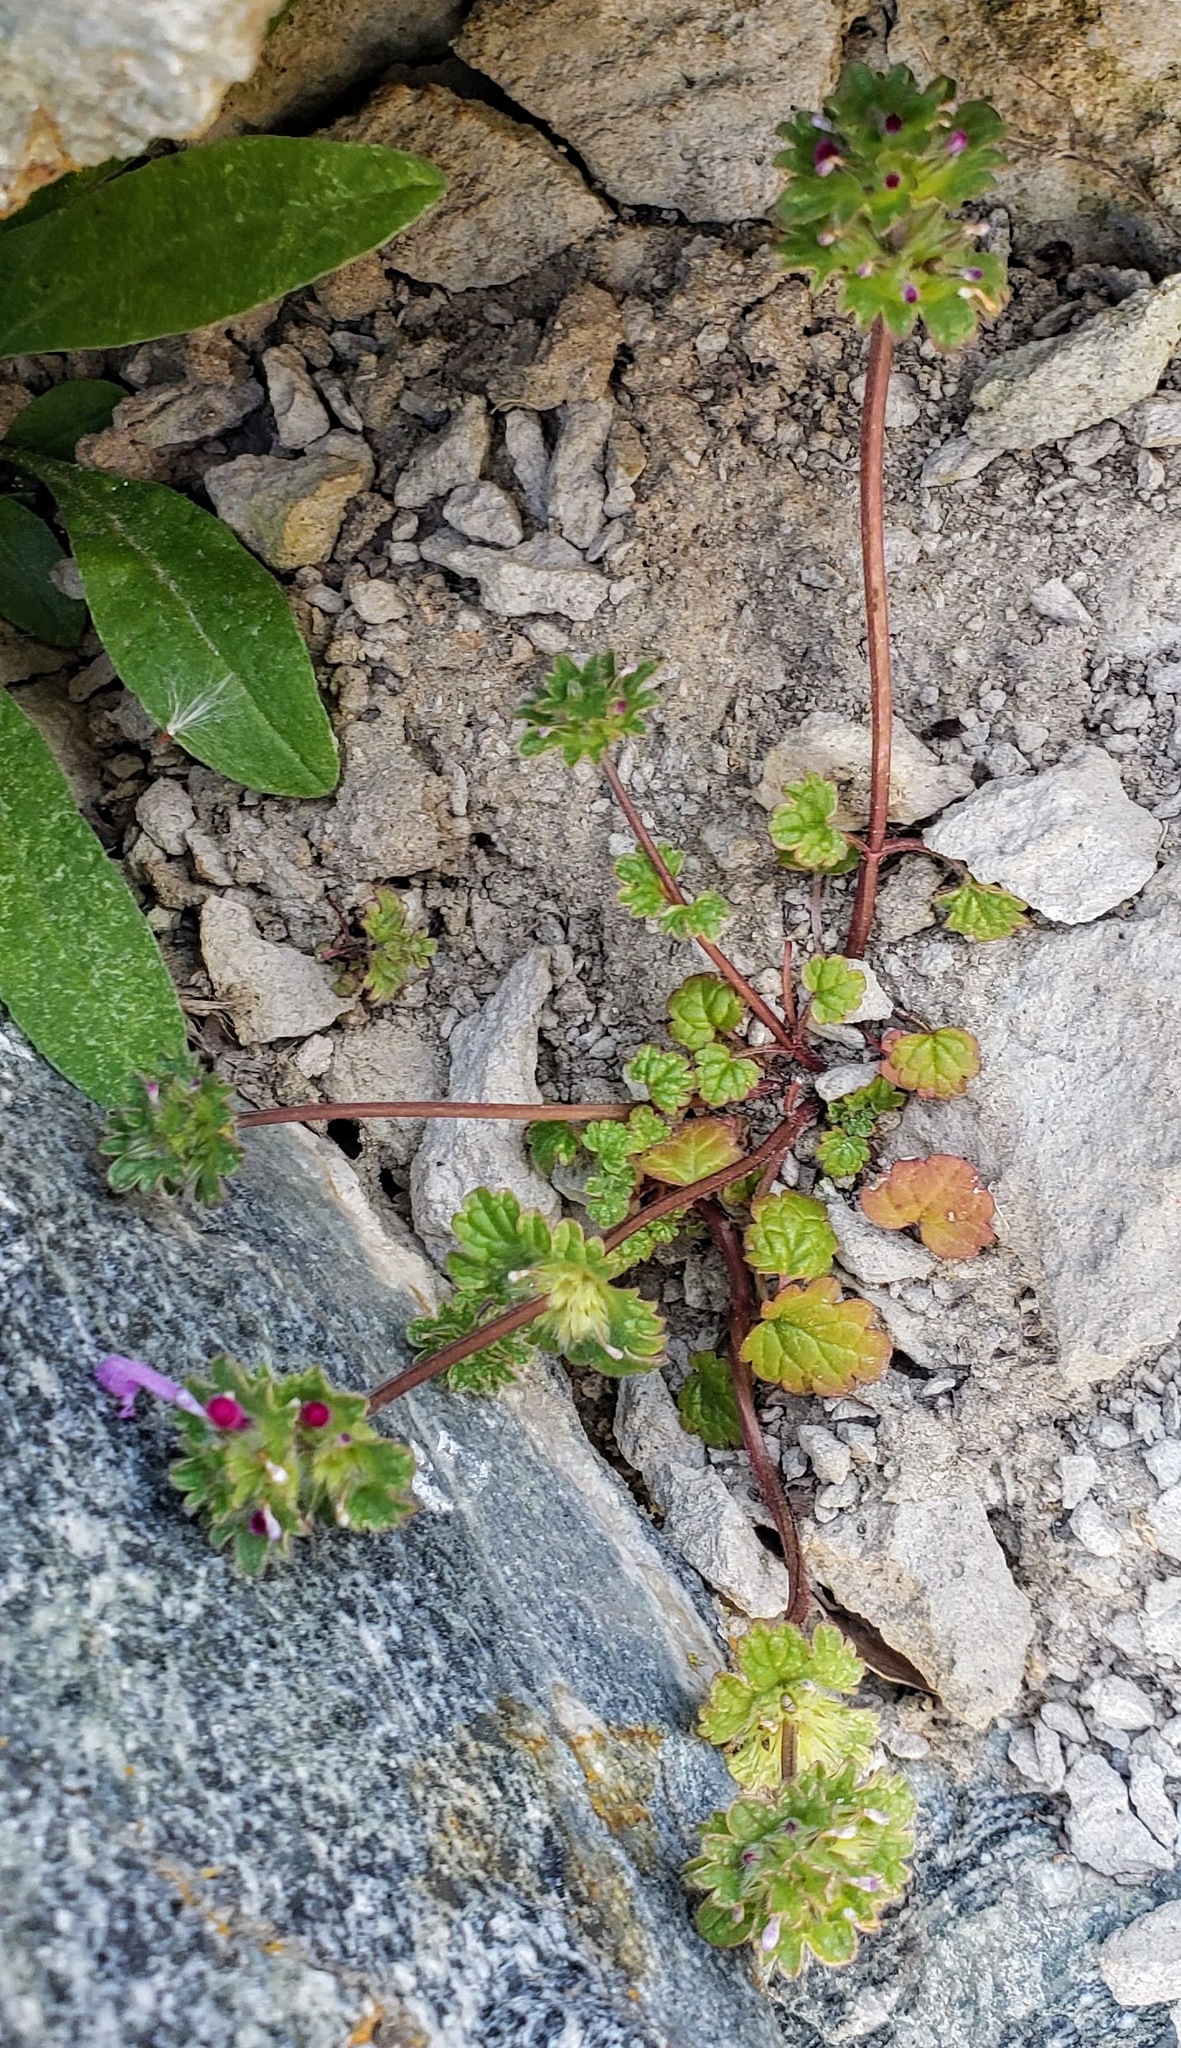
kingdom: Plantae
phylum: Tracheophyta
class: Magnoliopsida
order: Lamiales
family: Lamiaceae
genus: Lamium
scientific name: Lamium amplexicaule
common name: Henbit dead-nettle
